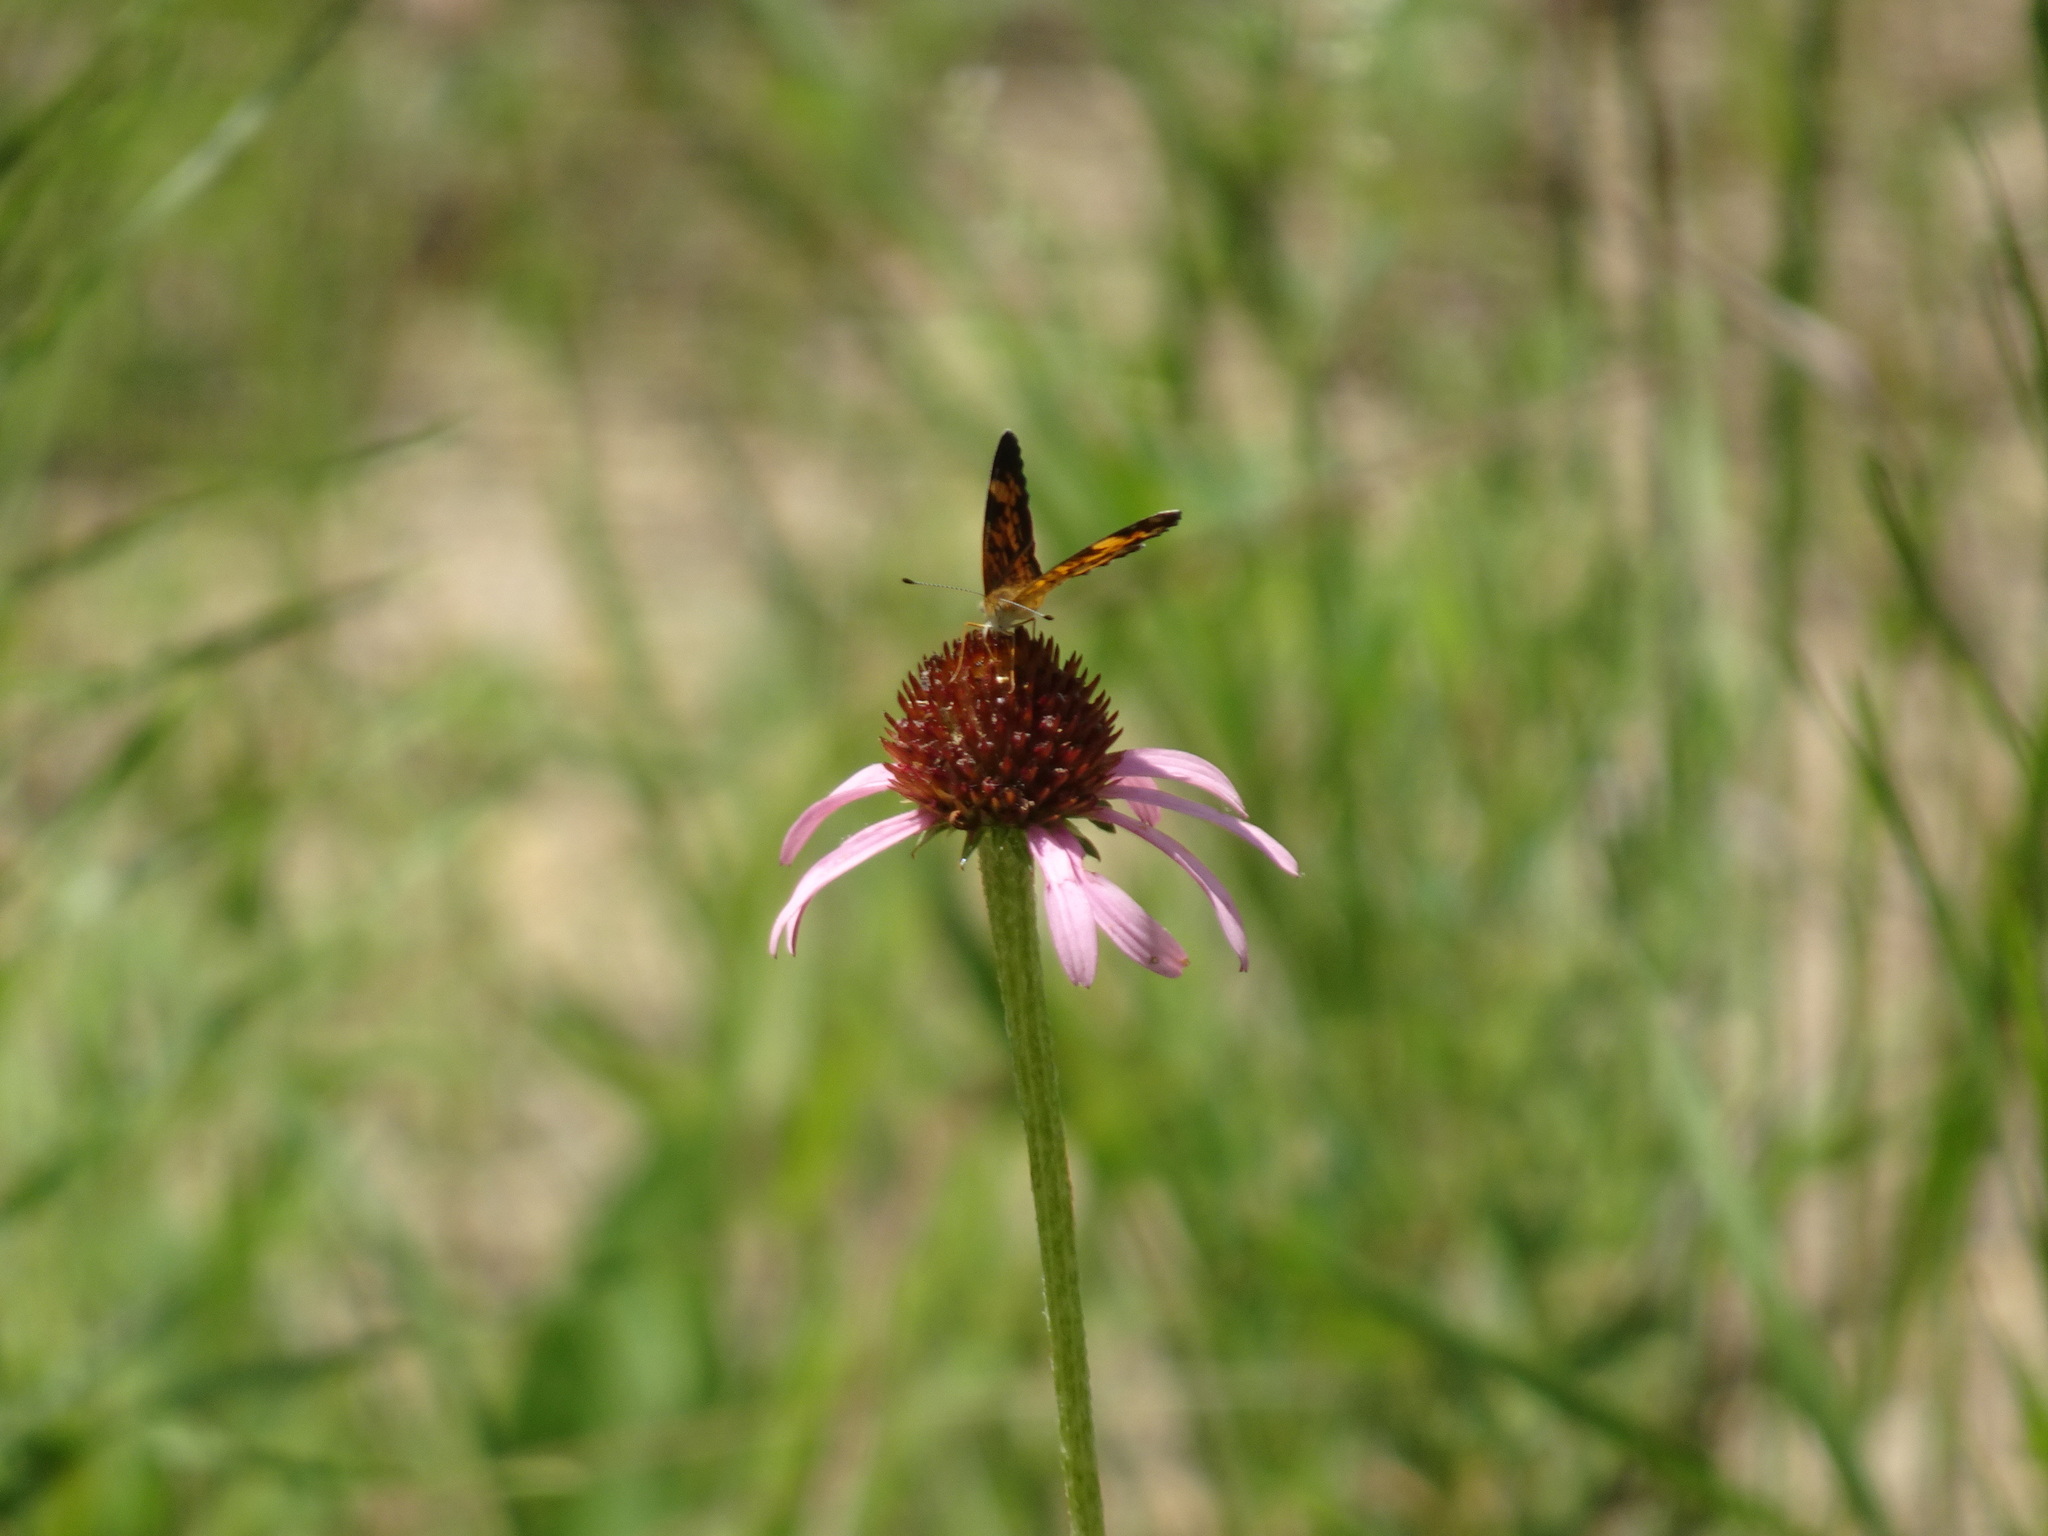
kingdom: Animalia
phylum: Arthropoda
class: Insecta
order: Lepidoptera
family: Nymphalidae
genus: Phyciodes
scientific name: Phyciodes tharos
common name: Pearl crescent
